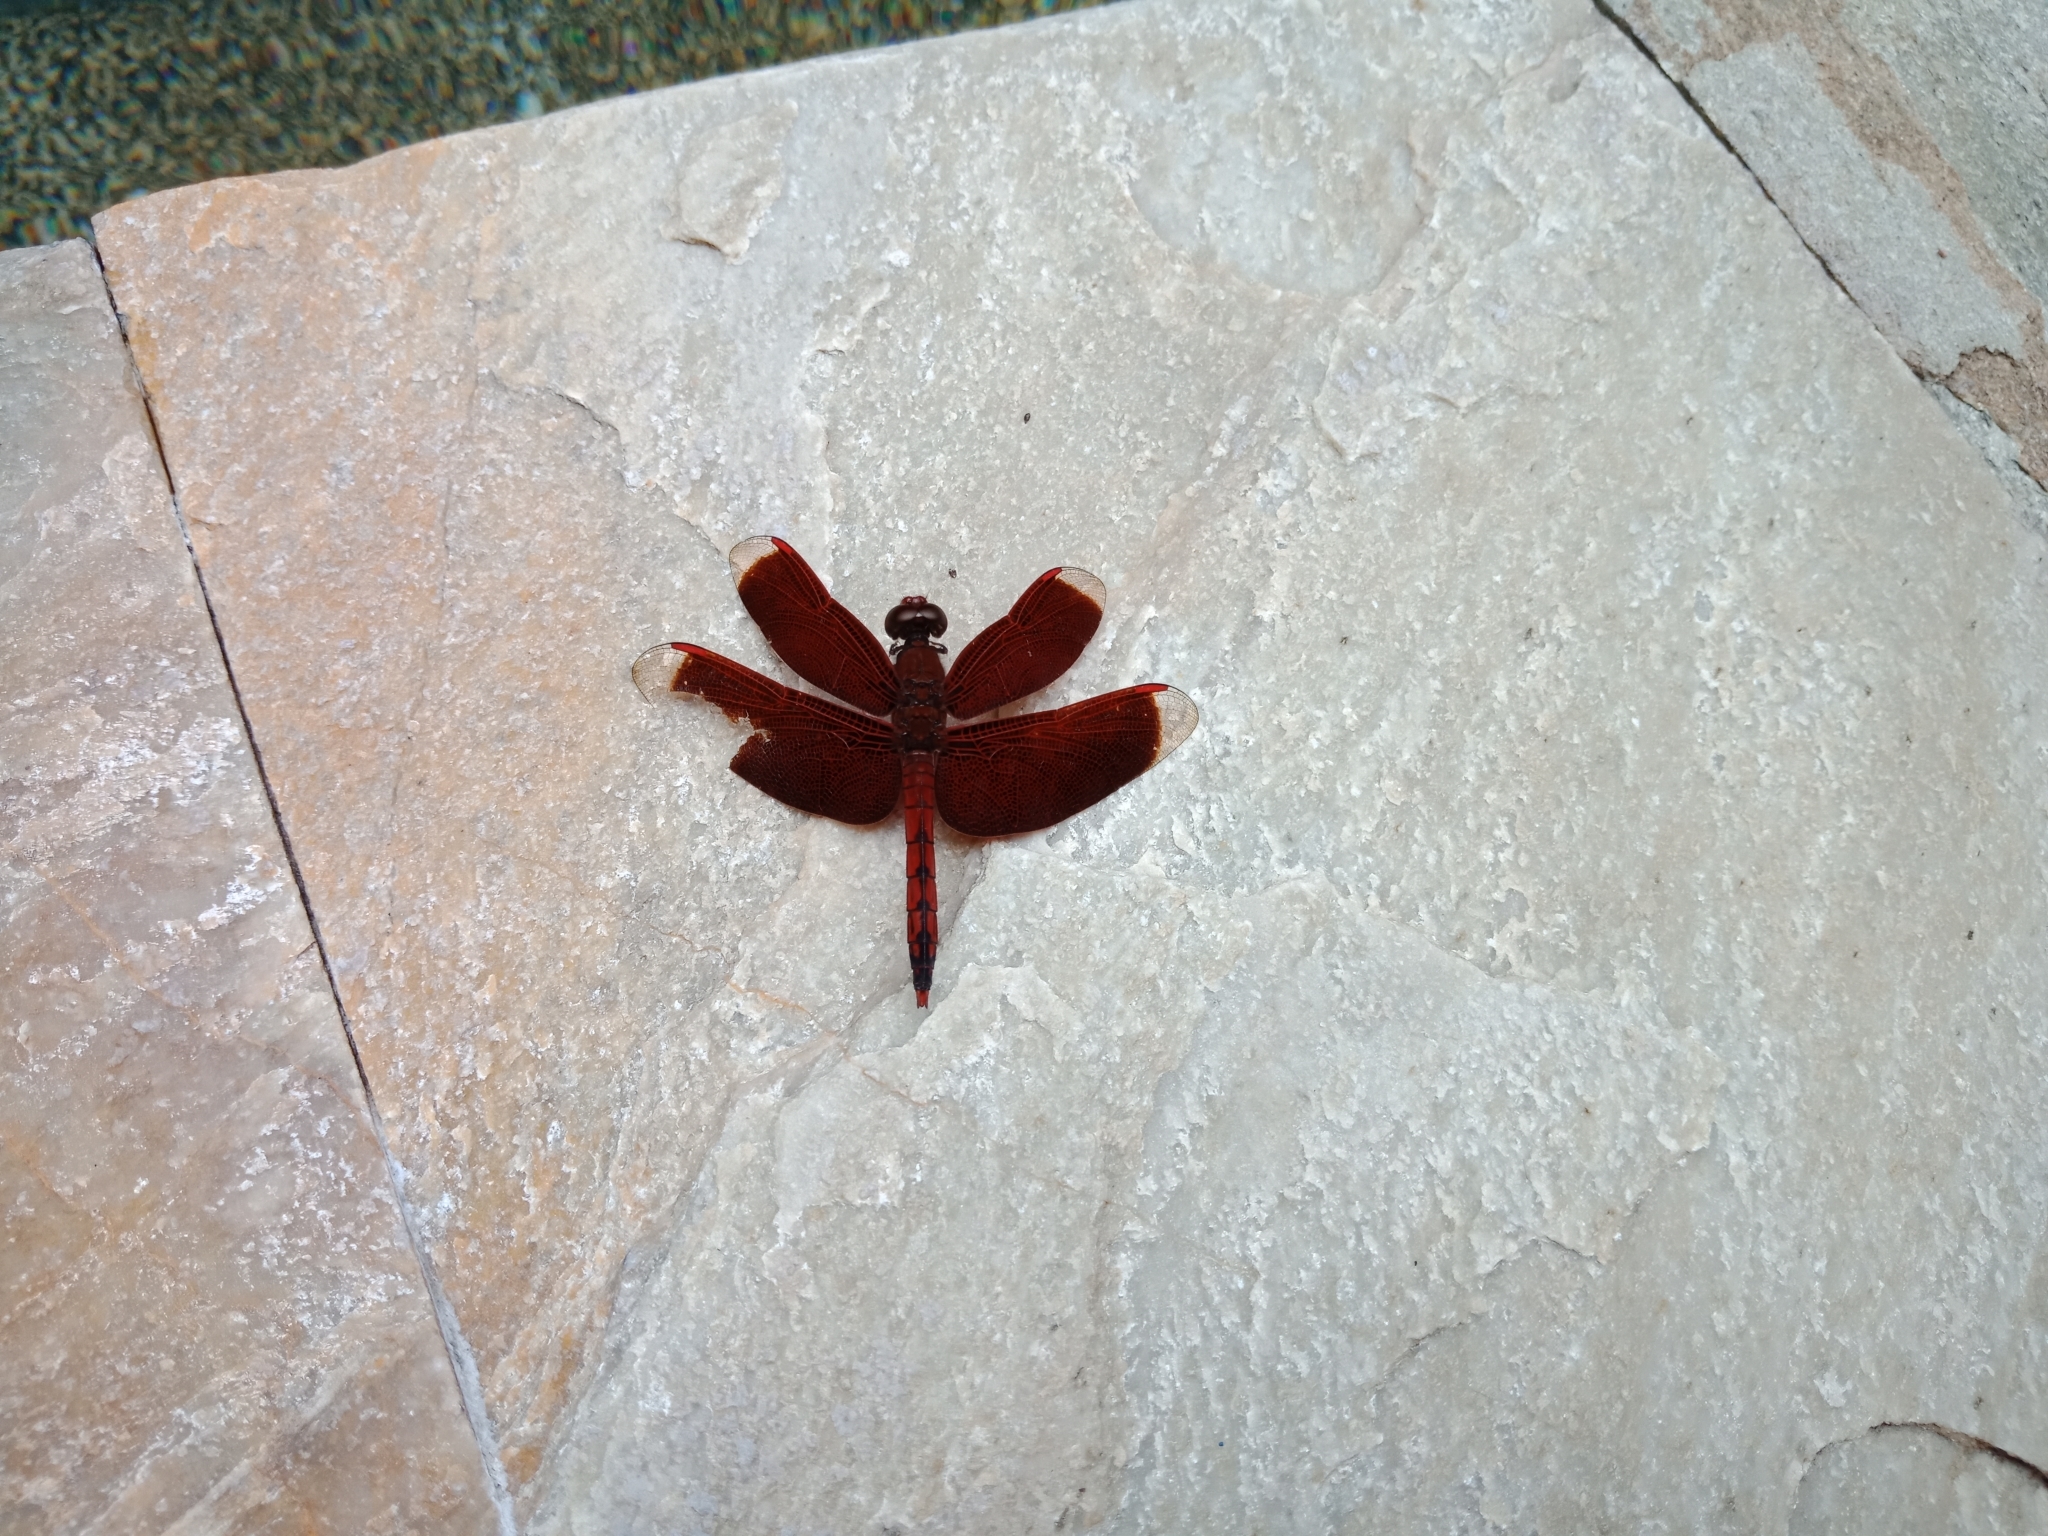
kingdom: Animalia
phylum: Arthropoda
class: Insecta
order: Odonata
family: Libellulidae
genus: Neurothemis
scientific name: Neurothemis taiwanensis
